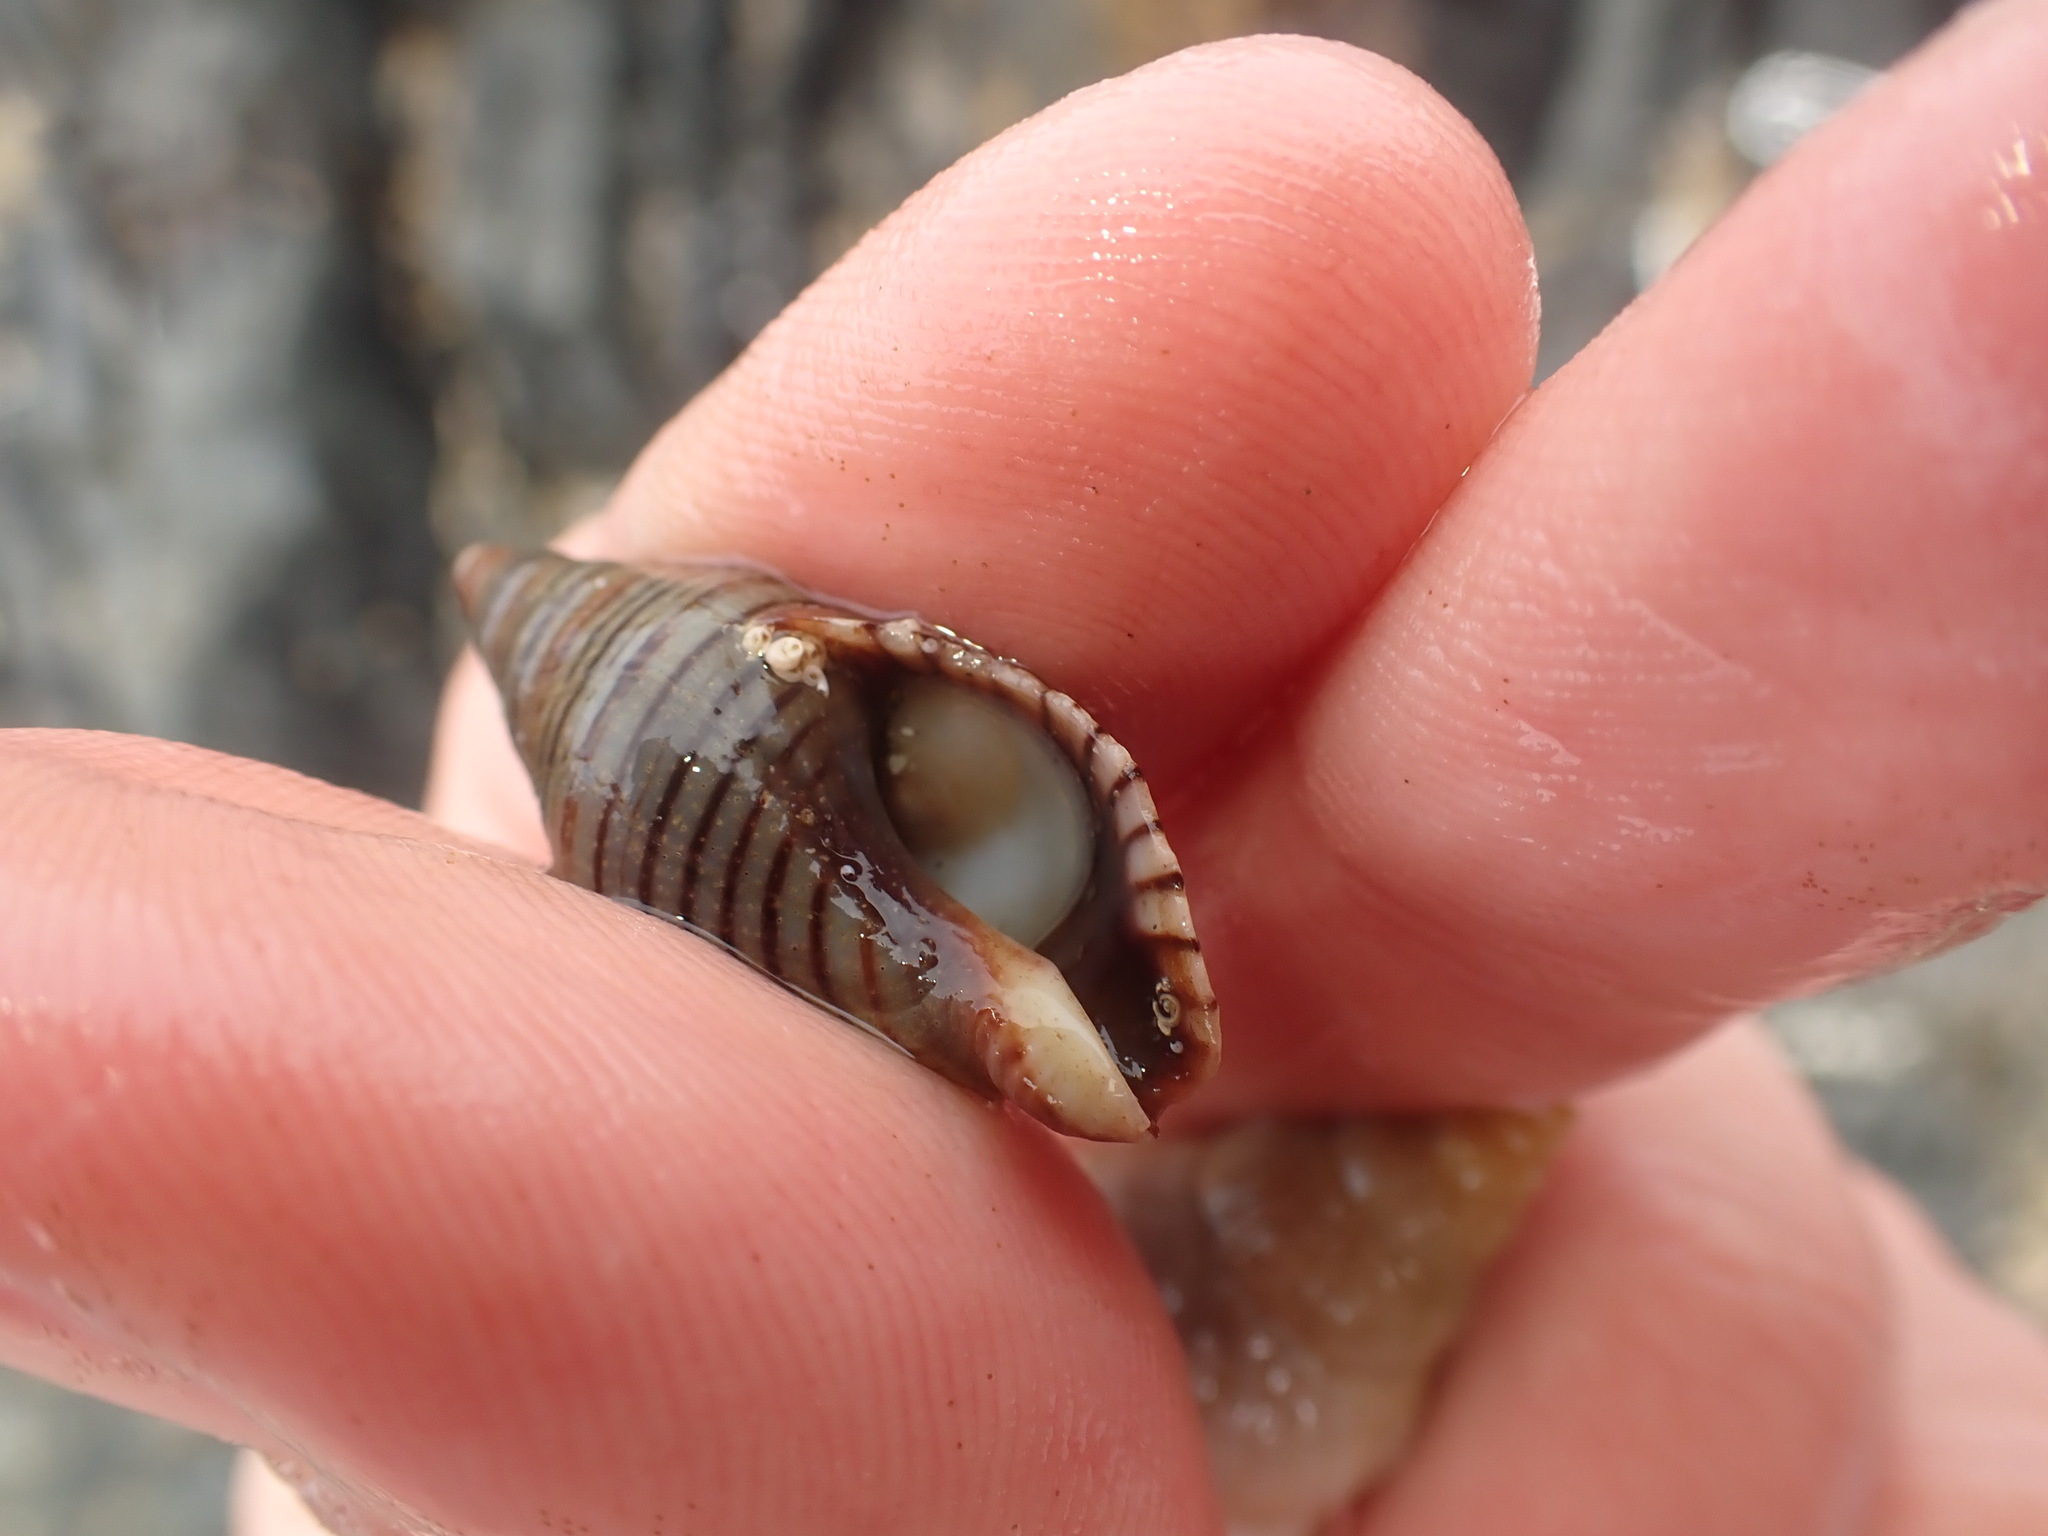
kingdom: Animalia
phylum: Mollusca
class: Gastropoda
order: Littorinimorpha
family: Calyptraeidae
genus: Maoricrypta
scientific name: Maoricrypta sodalis
